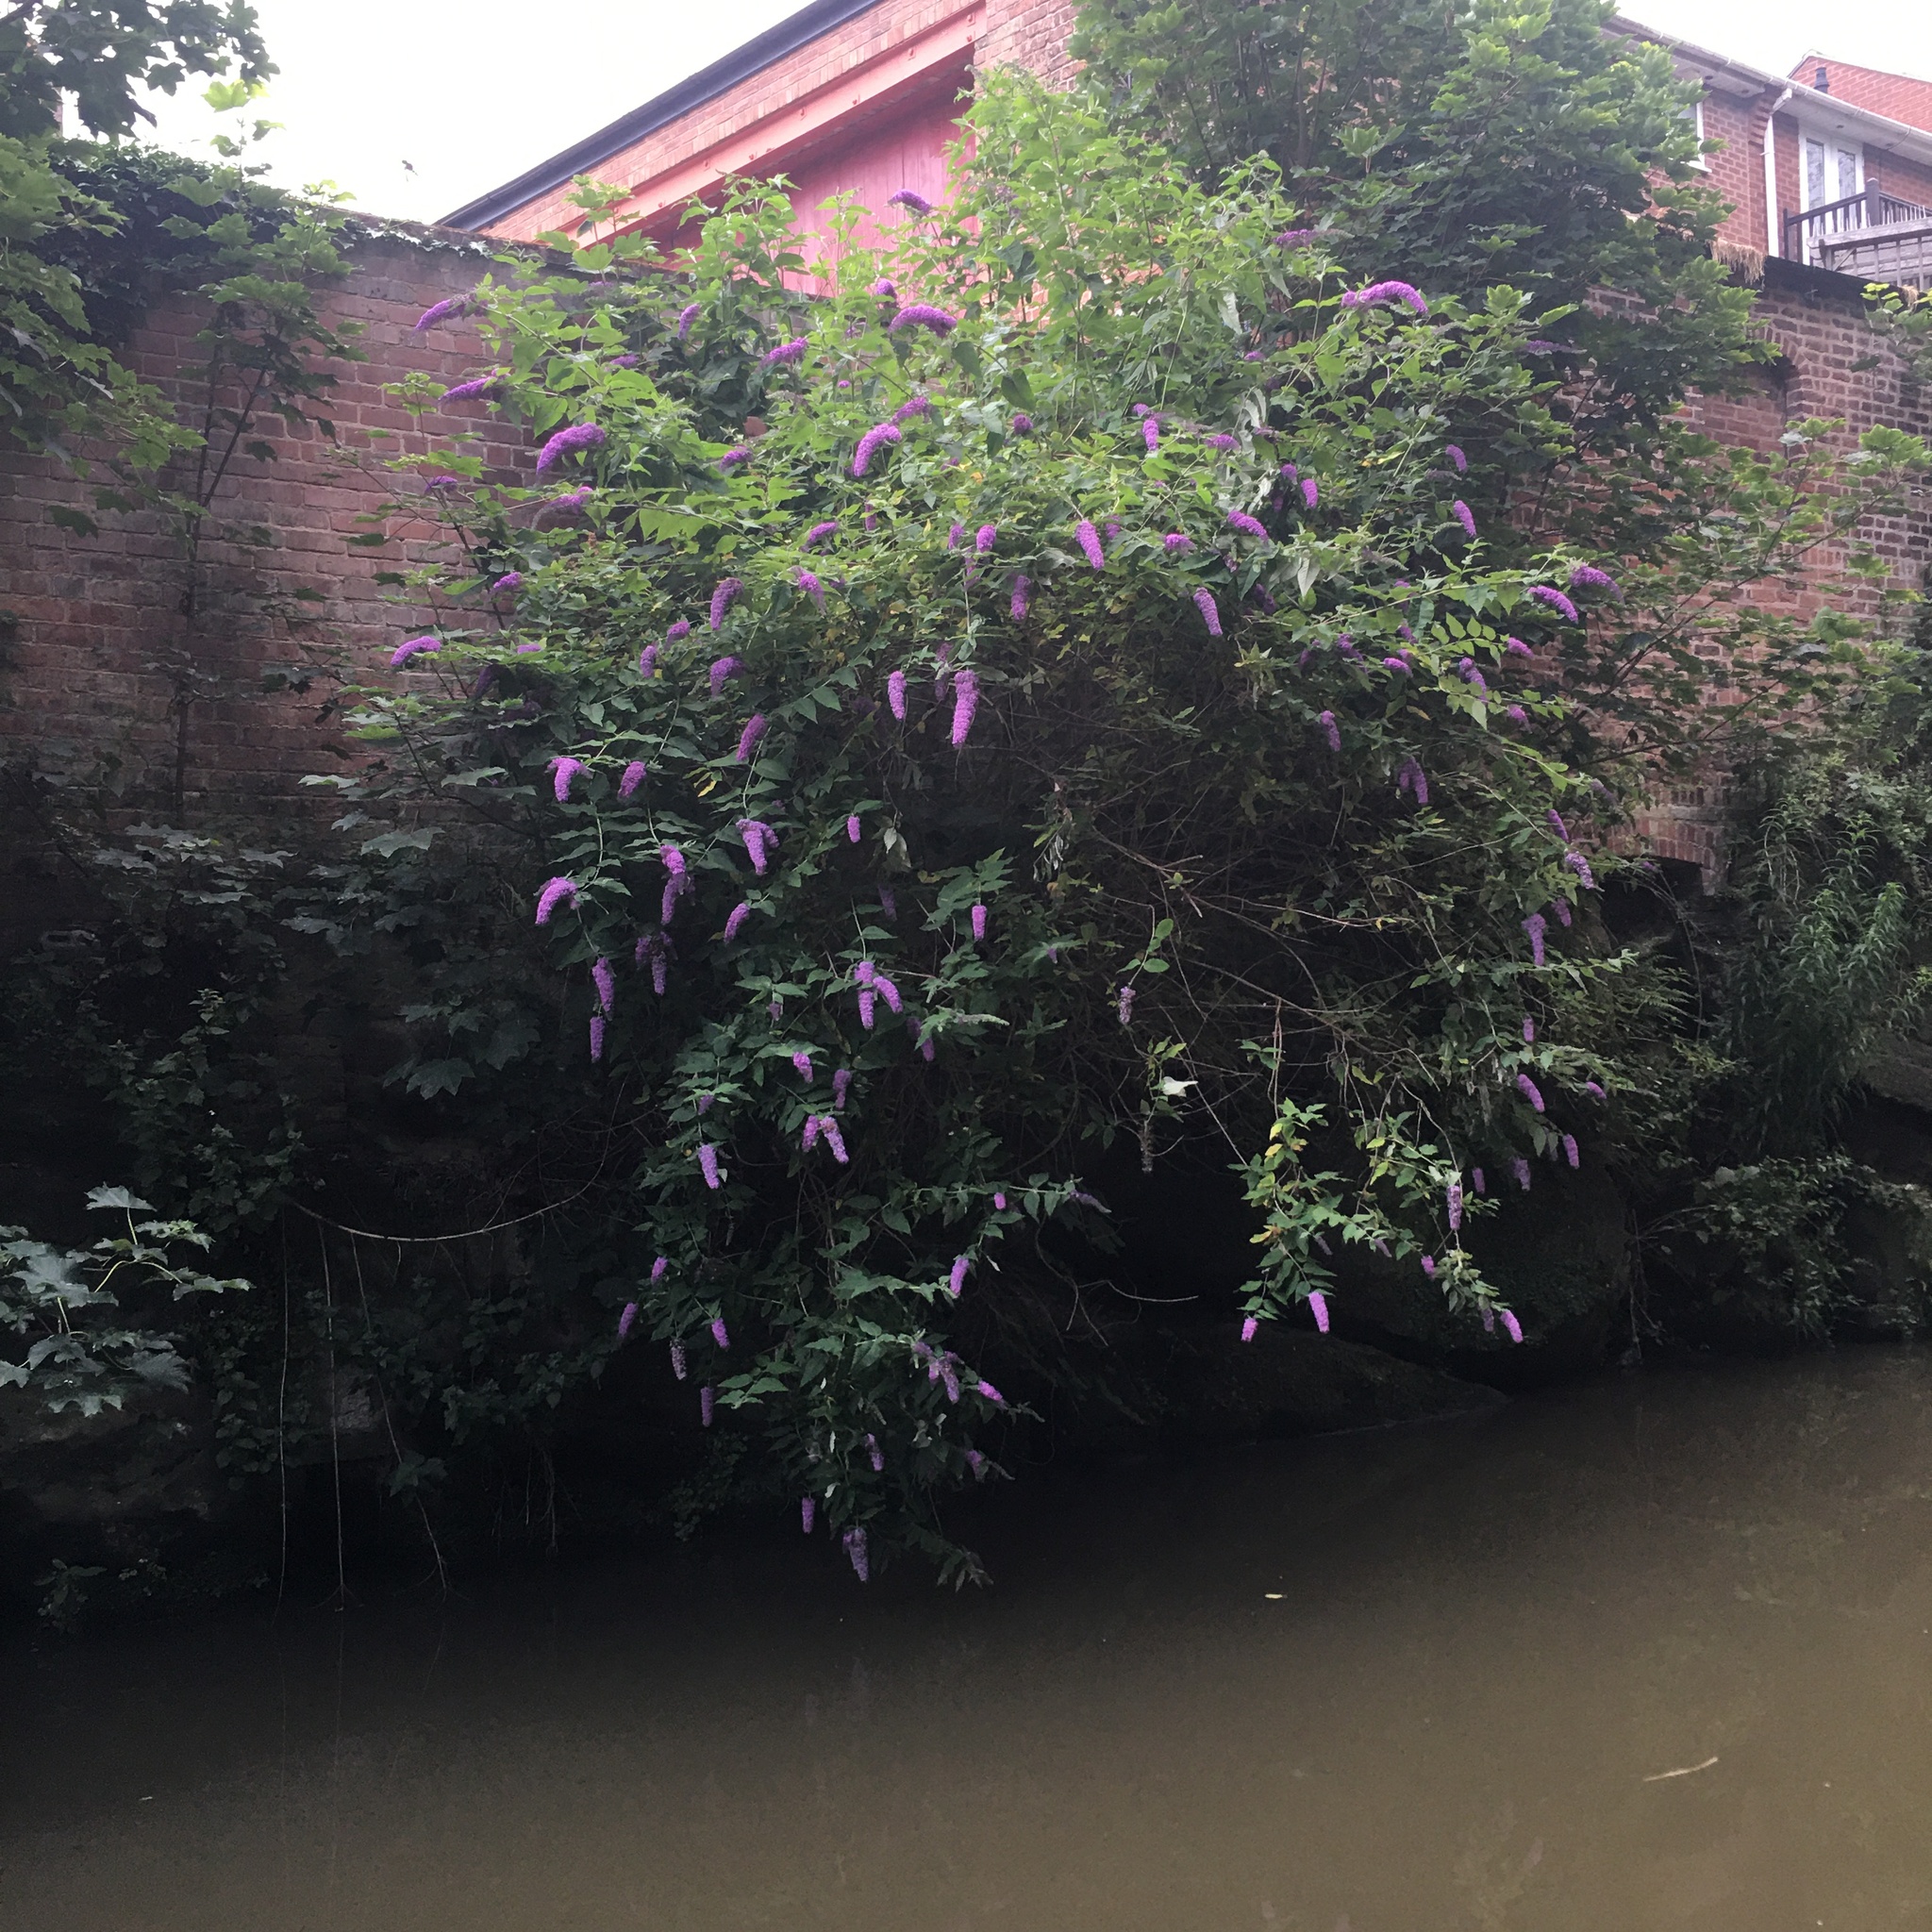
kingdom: Plantae
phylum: Tracheophyta
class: Magnoliopsida
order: Lamiales
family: Scrophulariaceae
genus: Buddleja
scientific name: Buddleja davidii
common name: Butterfly-bush
